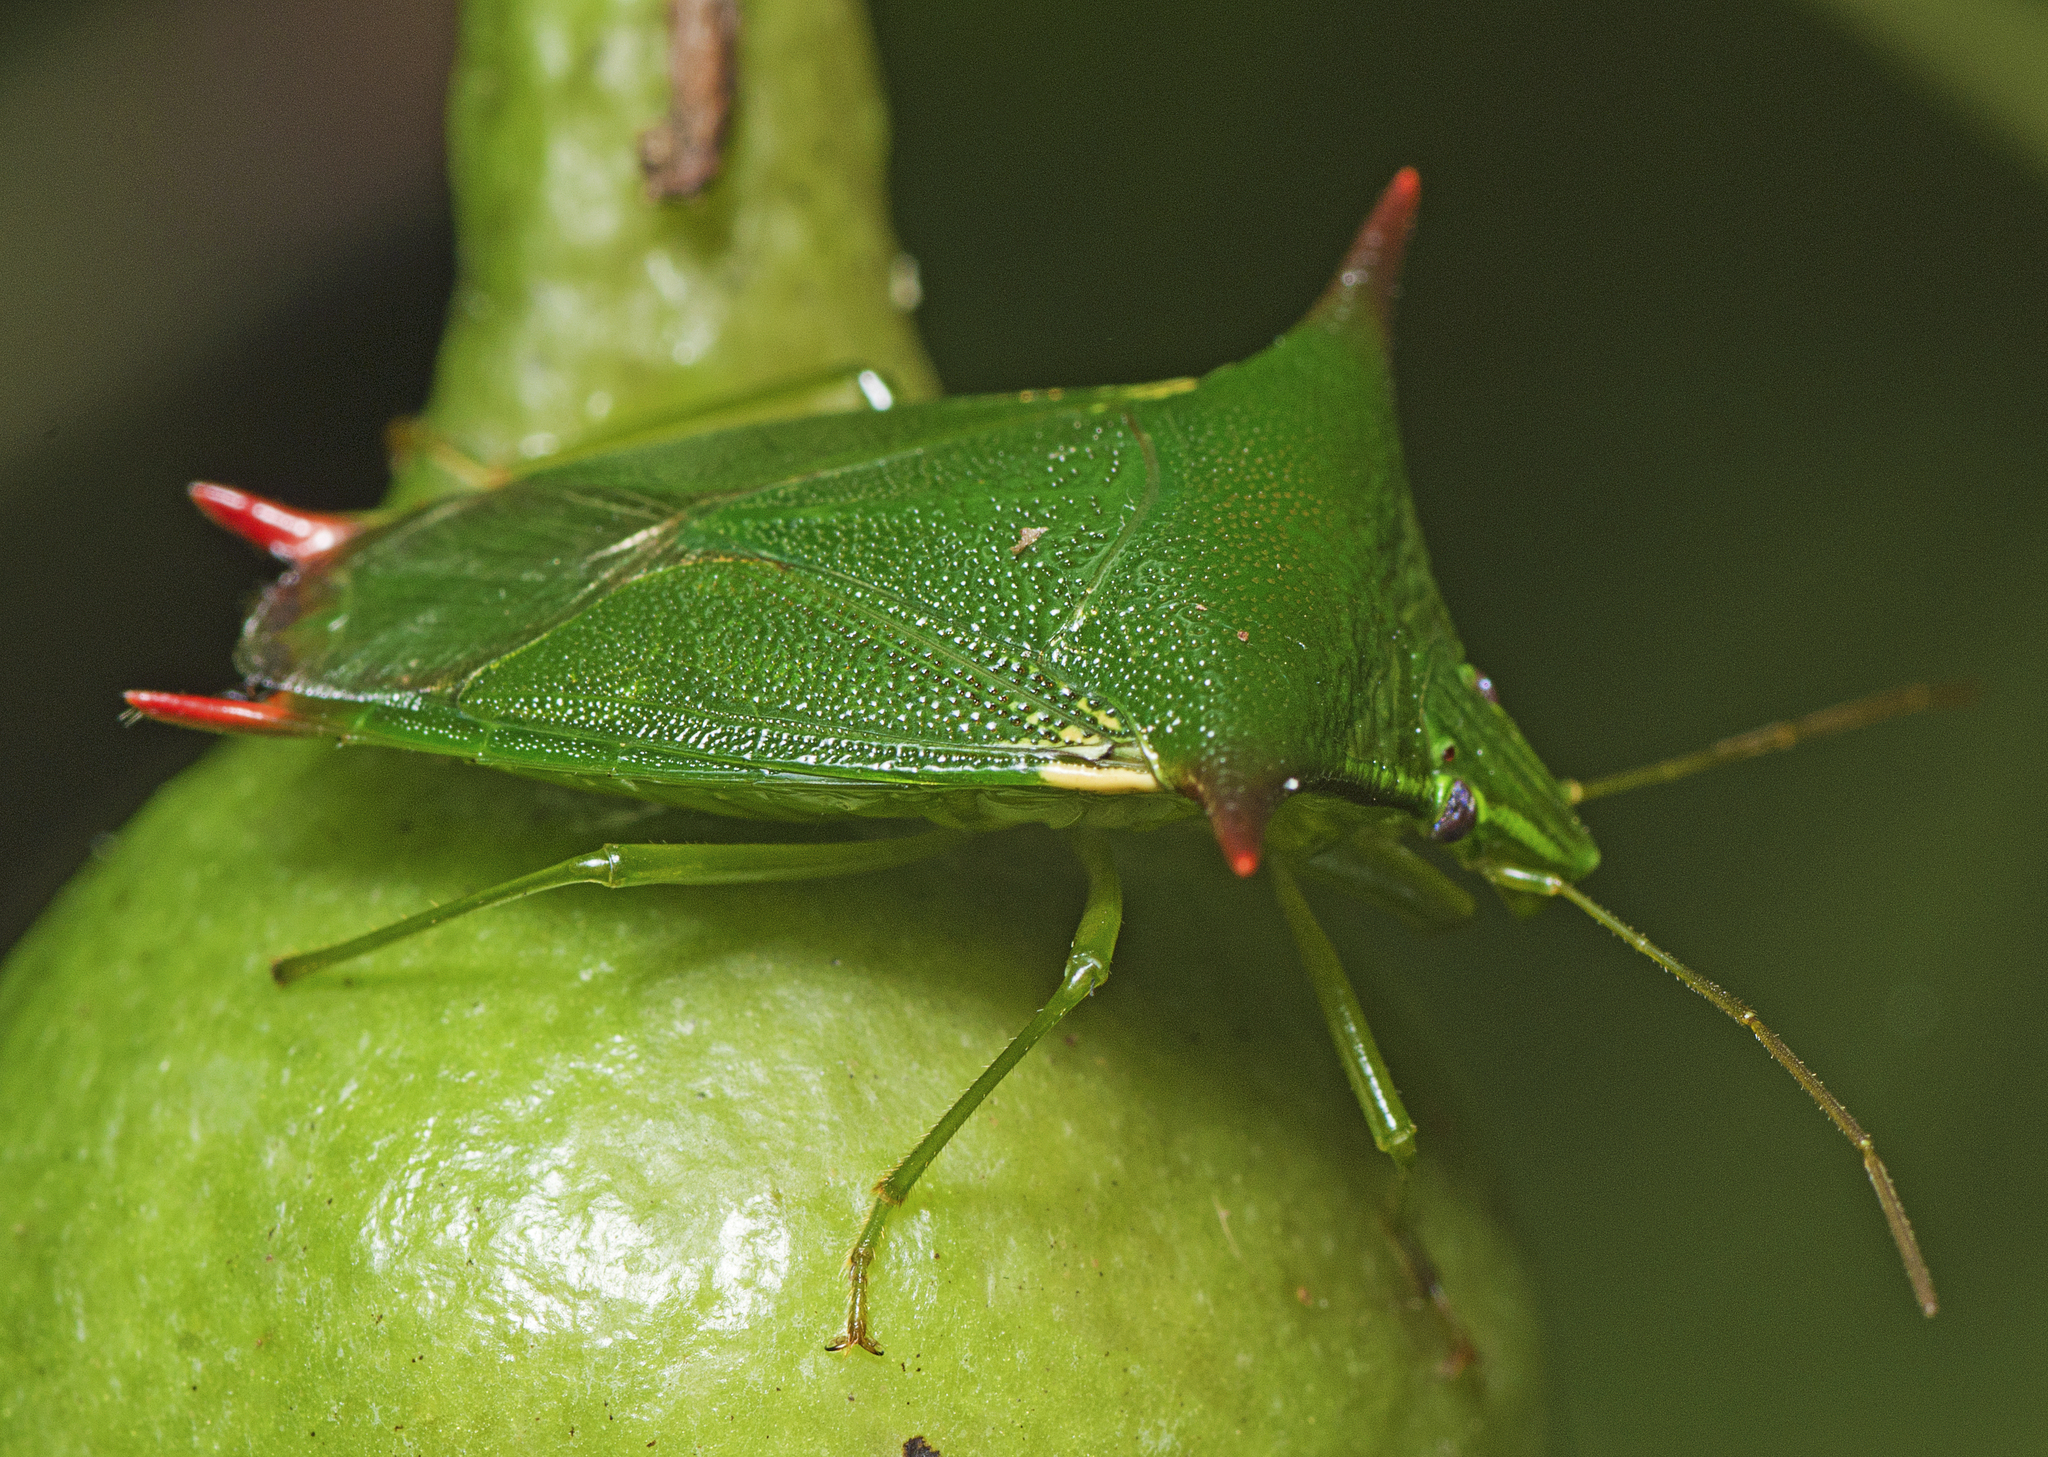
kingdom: Animalia
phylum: Arthropoda
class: Insecta
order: Hemiptera
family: Pentatomidae
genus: Vitellus
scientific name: Vitellus
